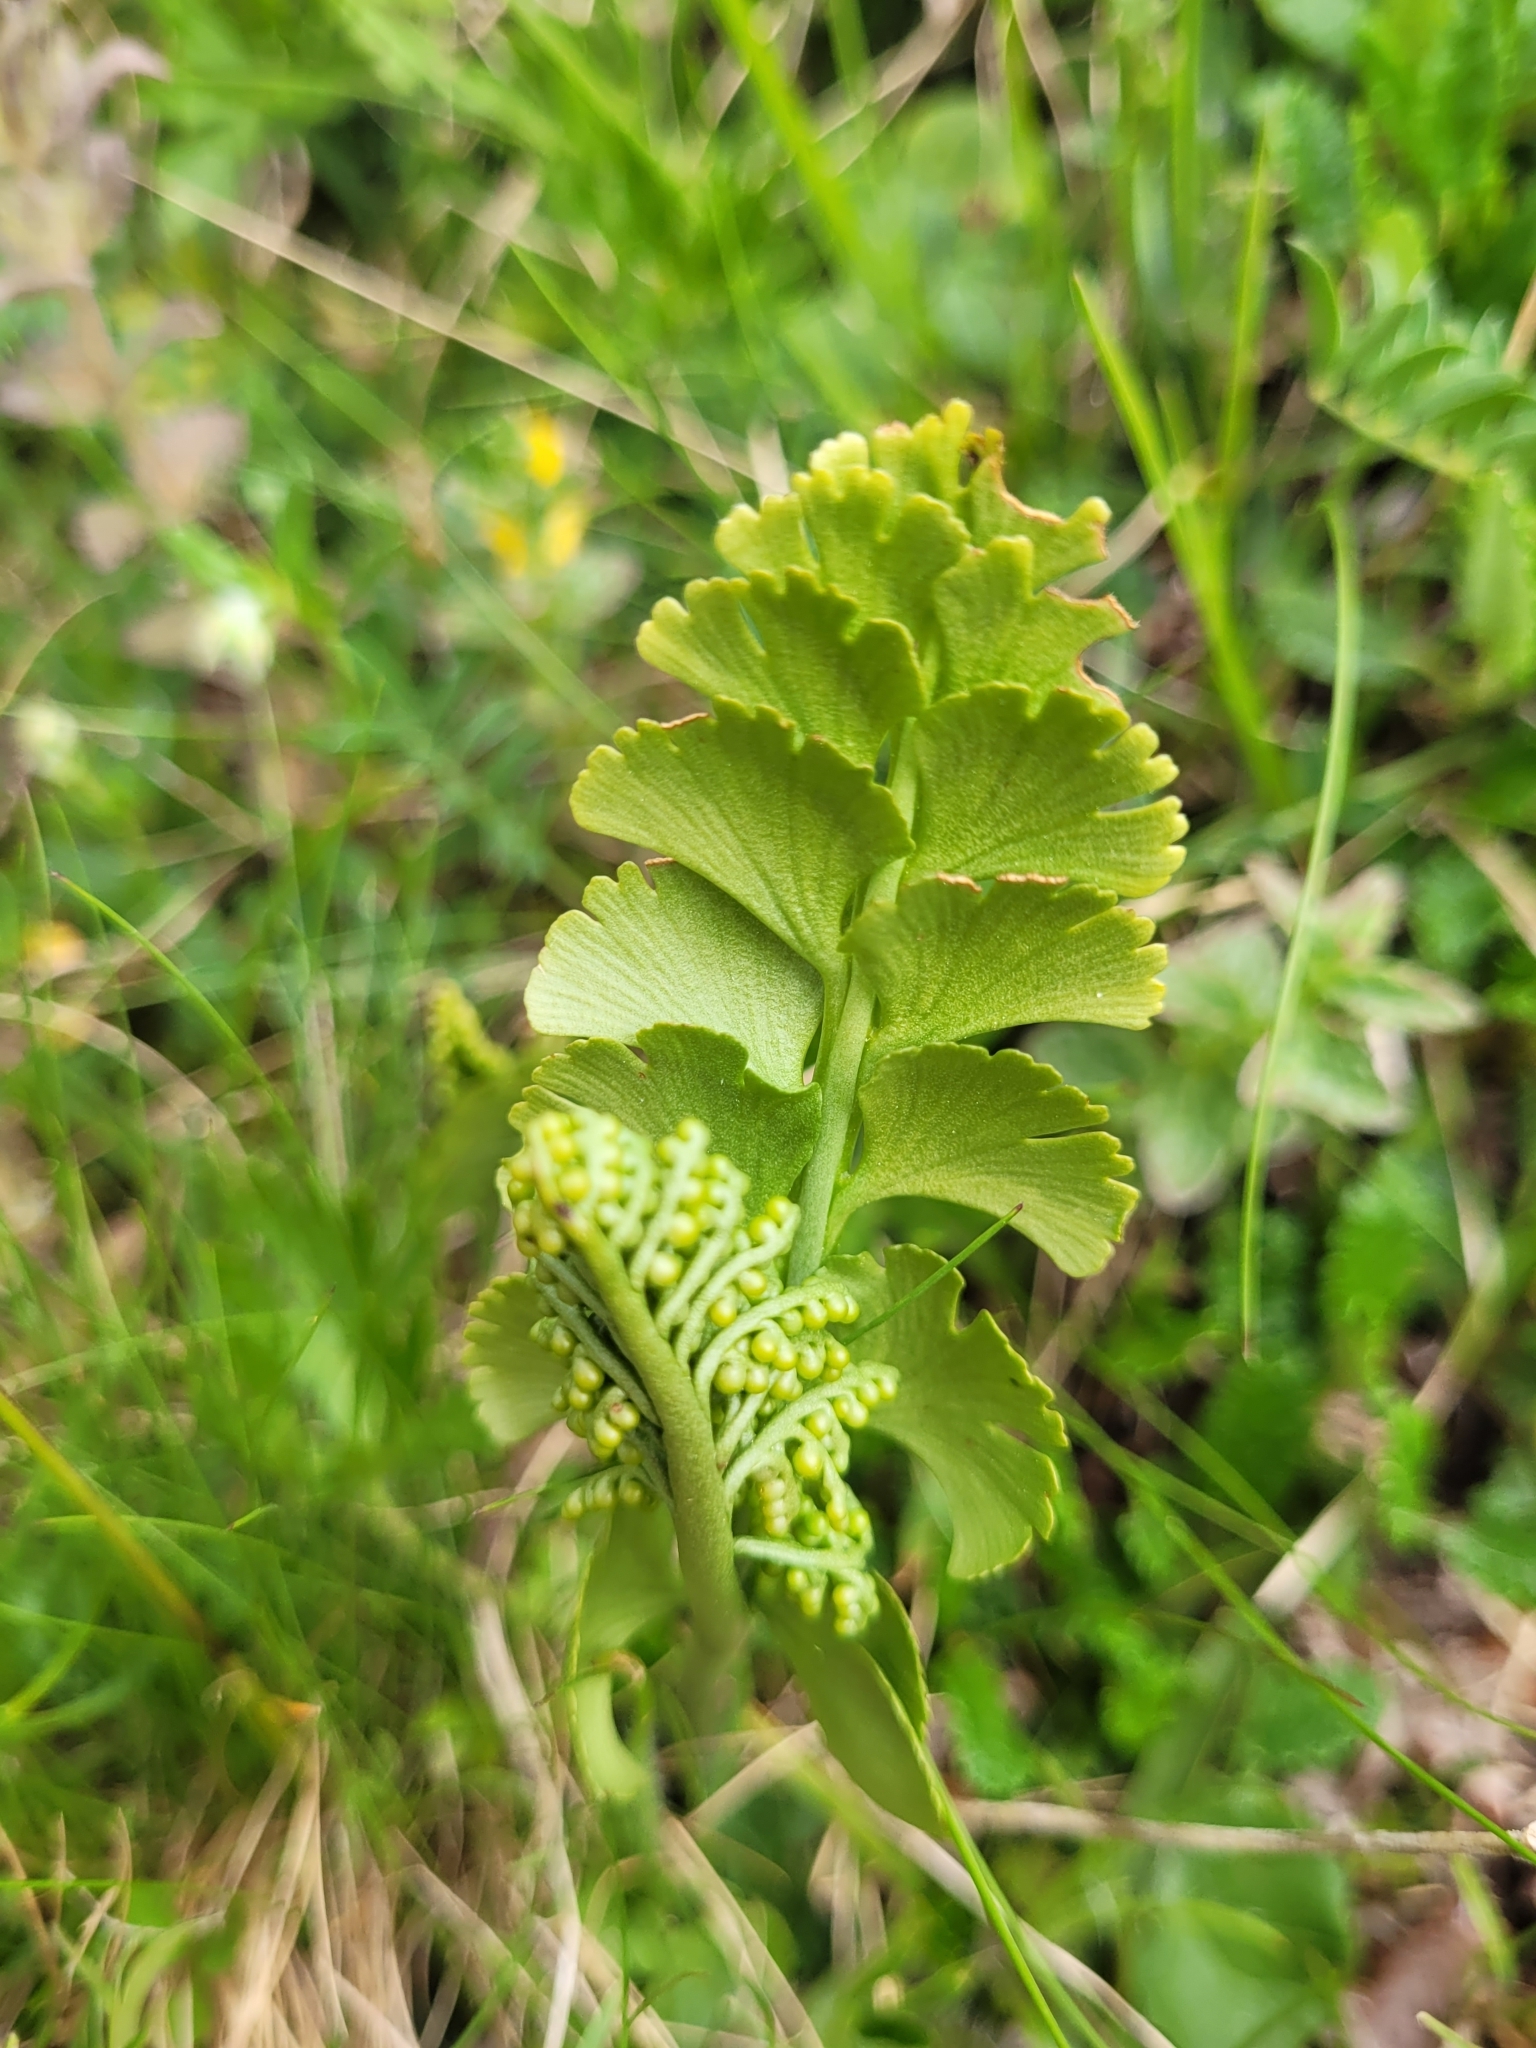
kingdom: Plantae
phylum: Tracheophyta
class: Polypodiopsida
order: Ophioglossales
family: Ophioglossaceae
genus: Botrychium
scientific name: Botrychium lunaria
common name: Moonwort
